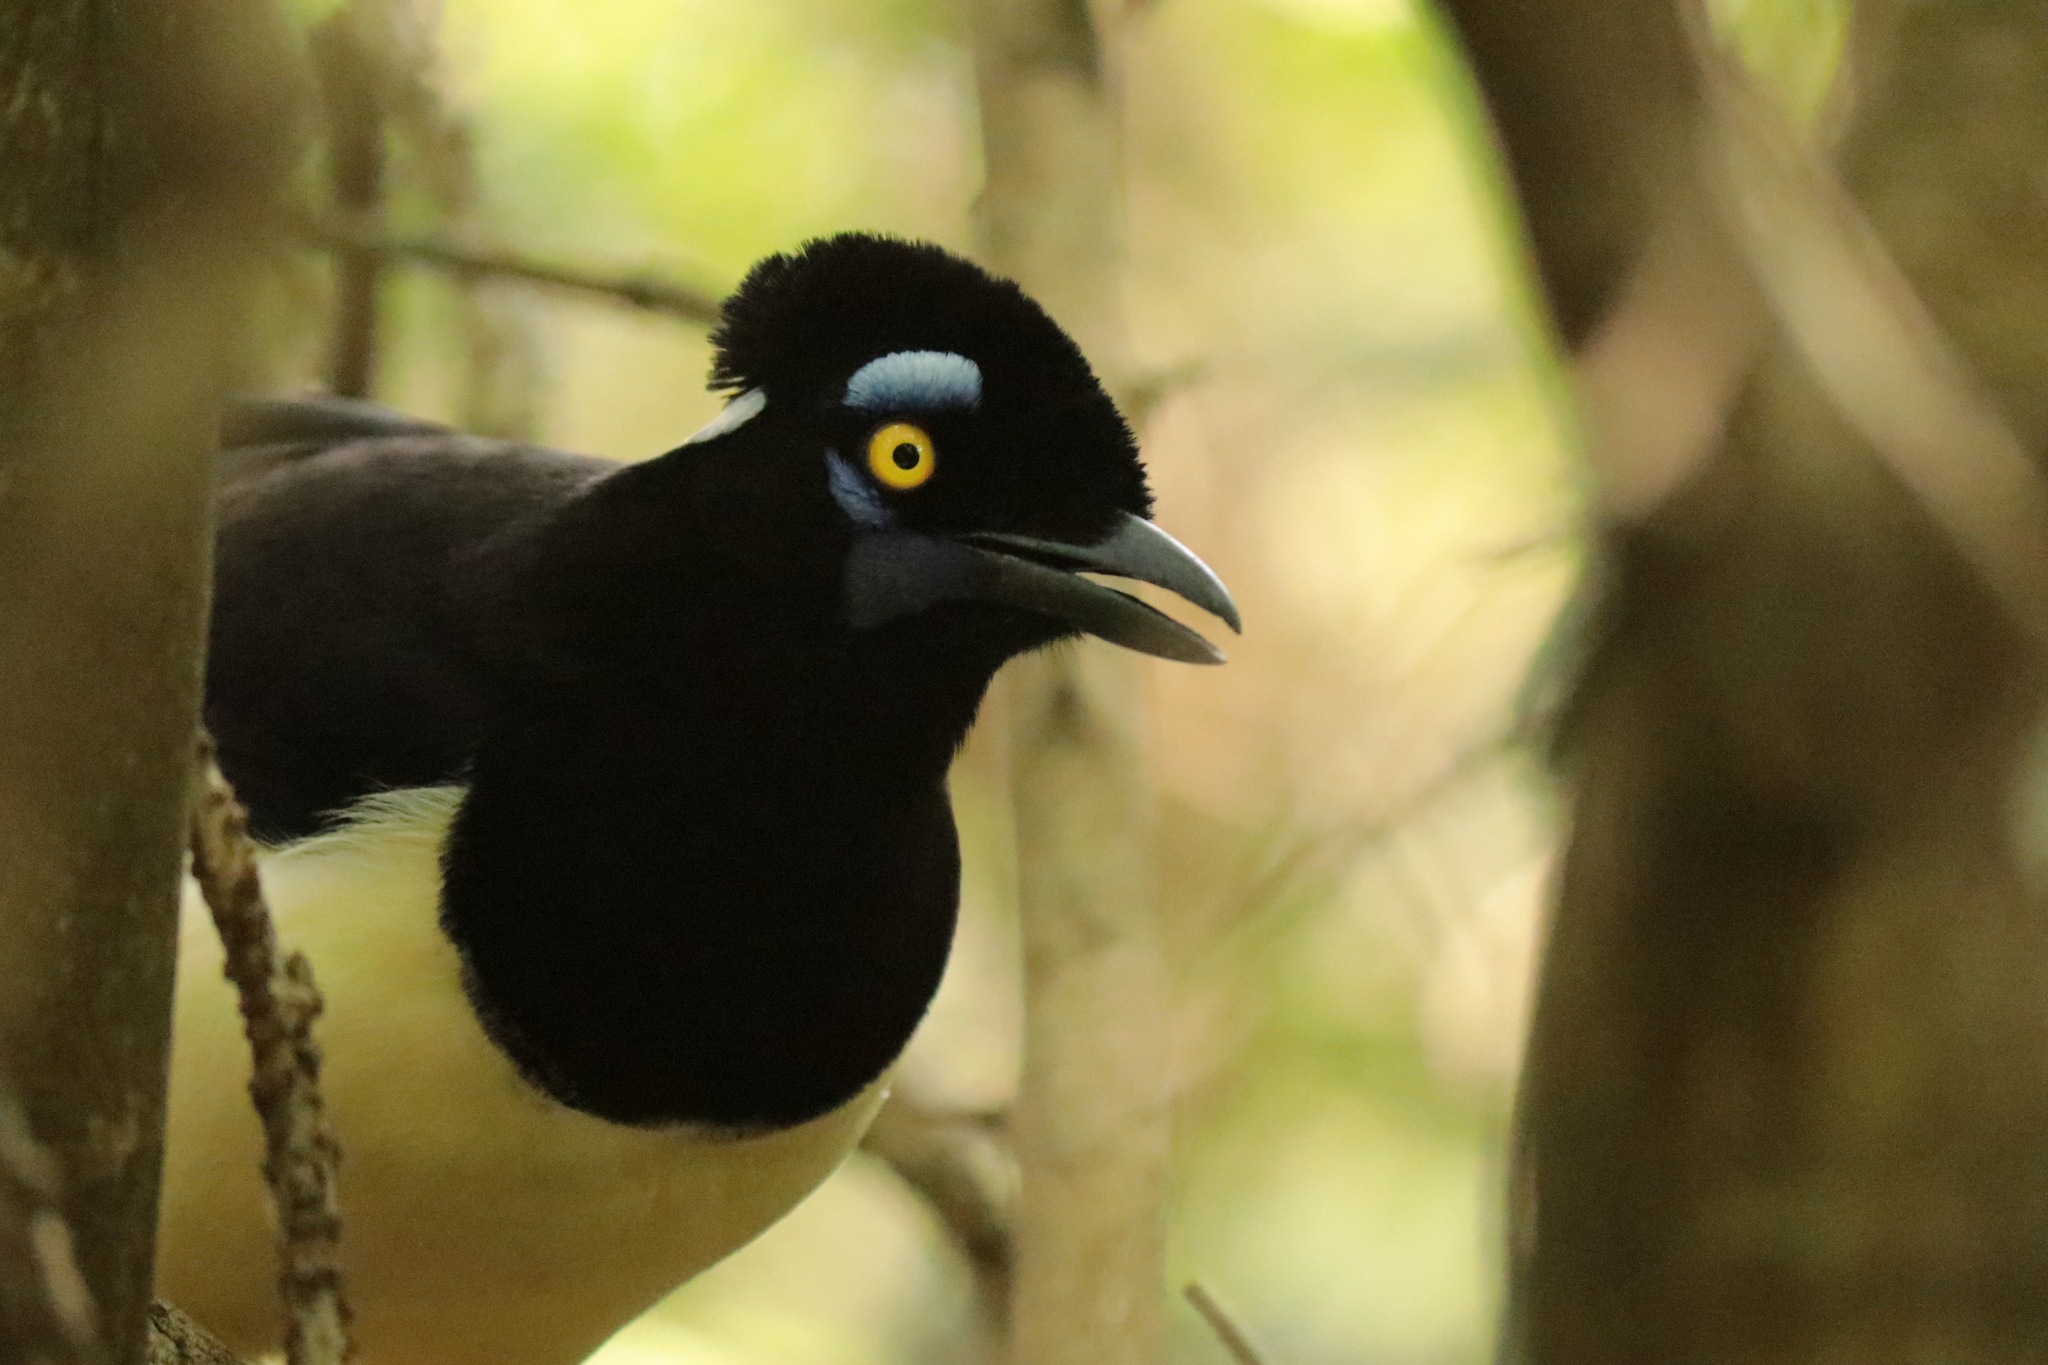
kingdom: Animalia
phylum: Chordata
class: Aves
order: Passeriformes
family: Corvidae
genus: Cyanocorax
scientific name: Cyanocorax chrysops
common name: Plush-crested jay
